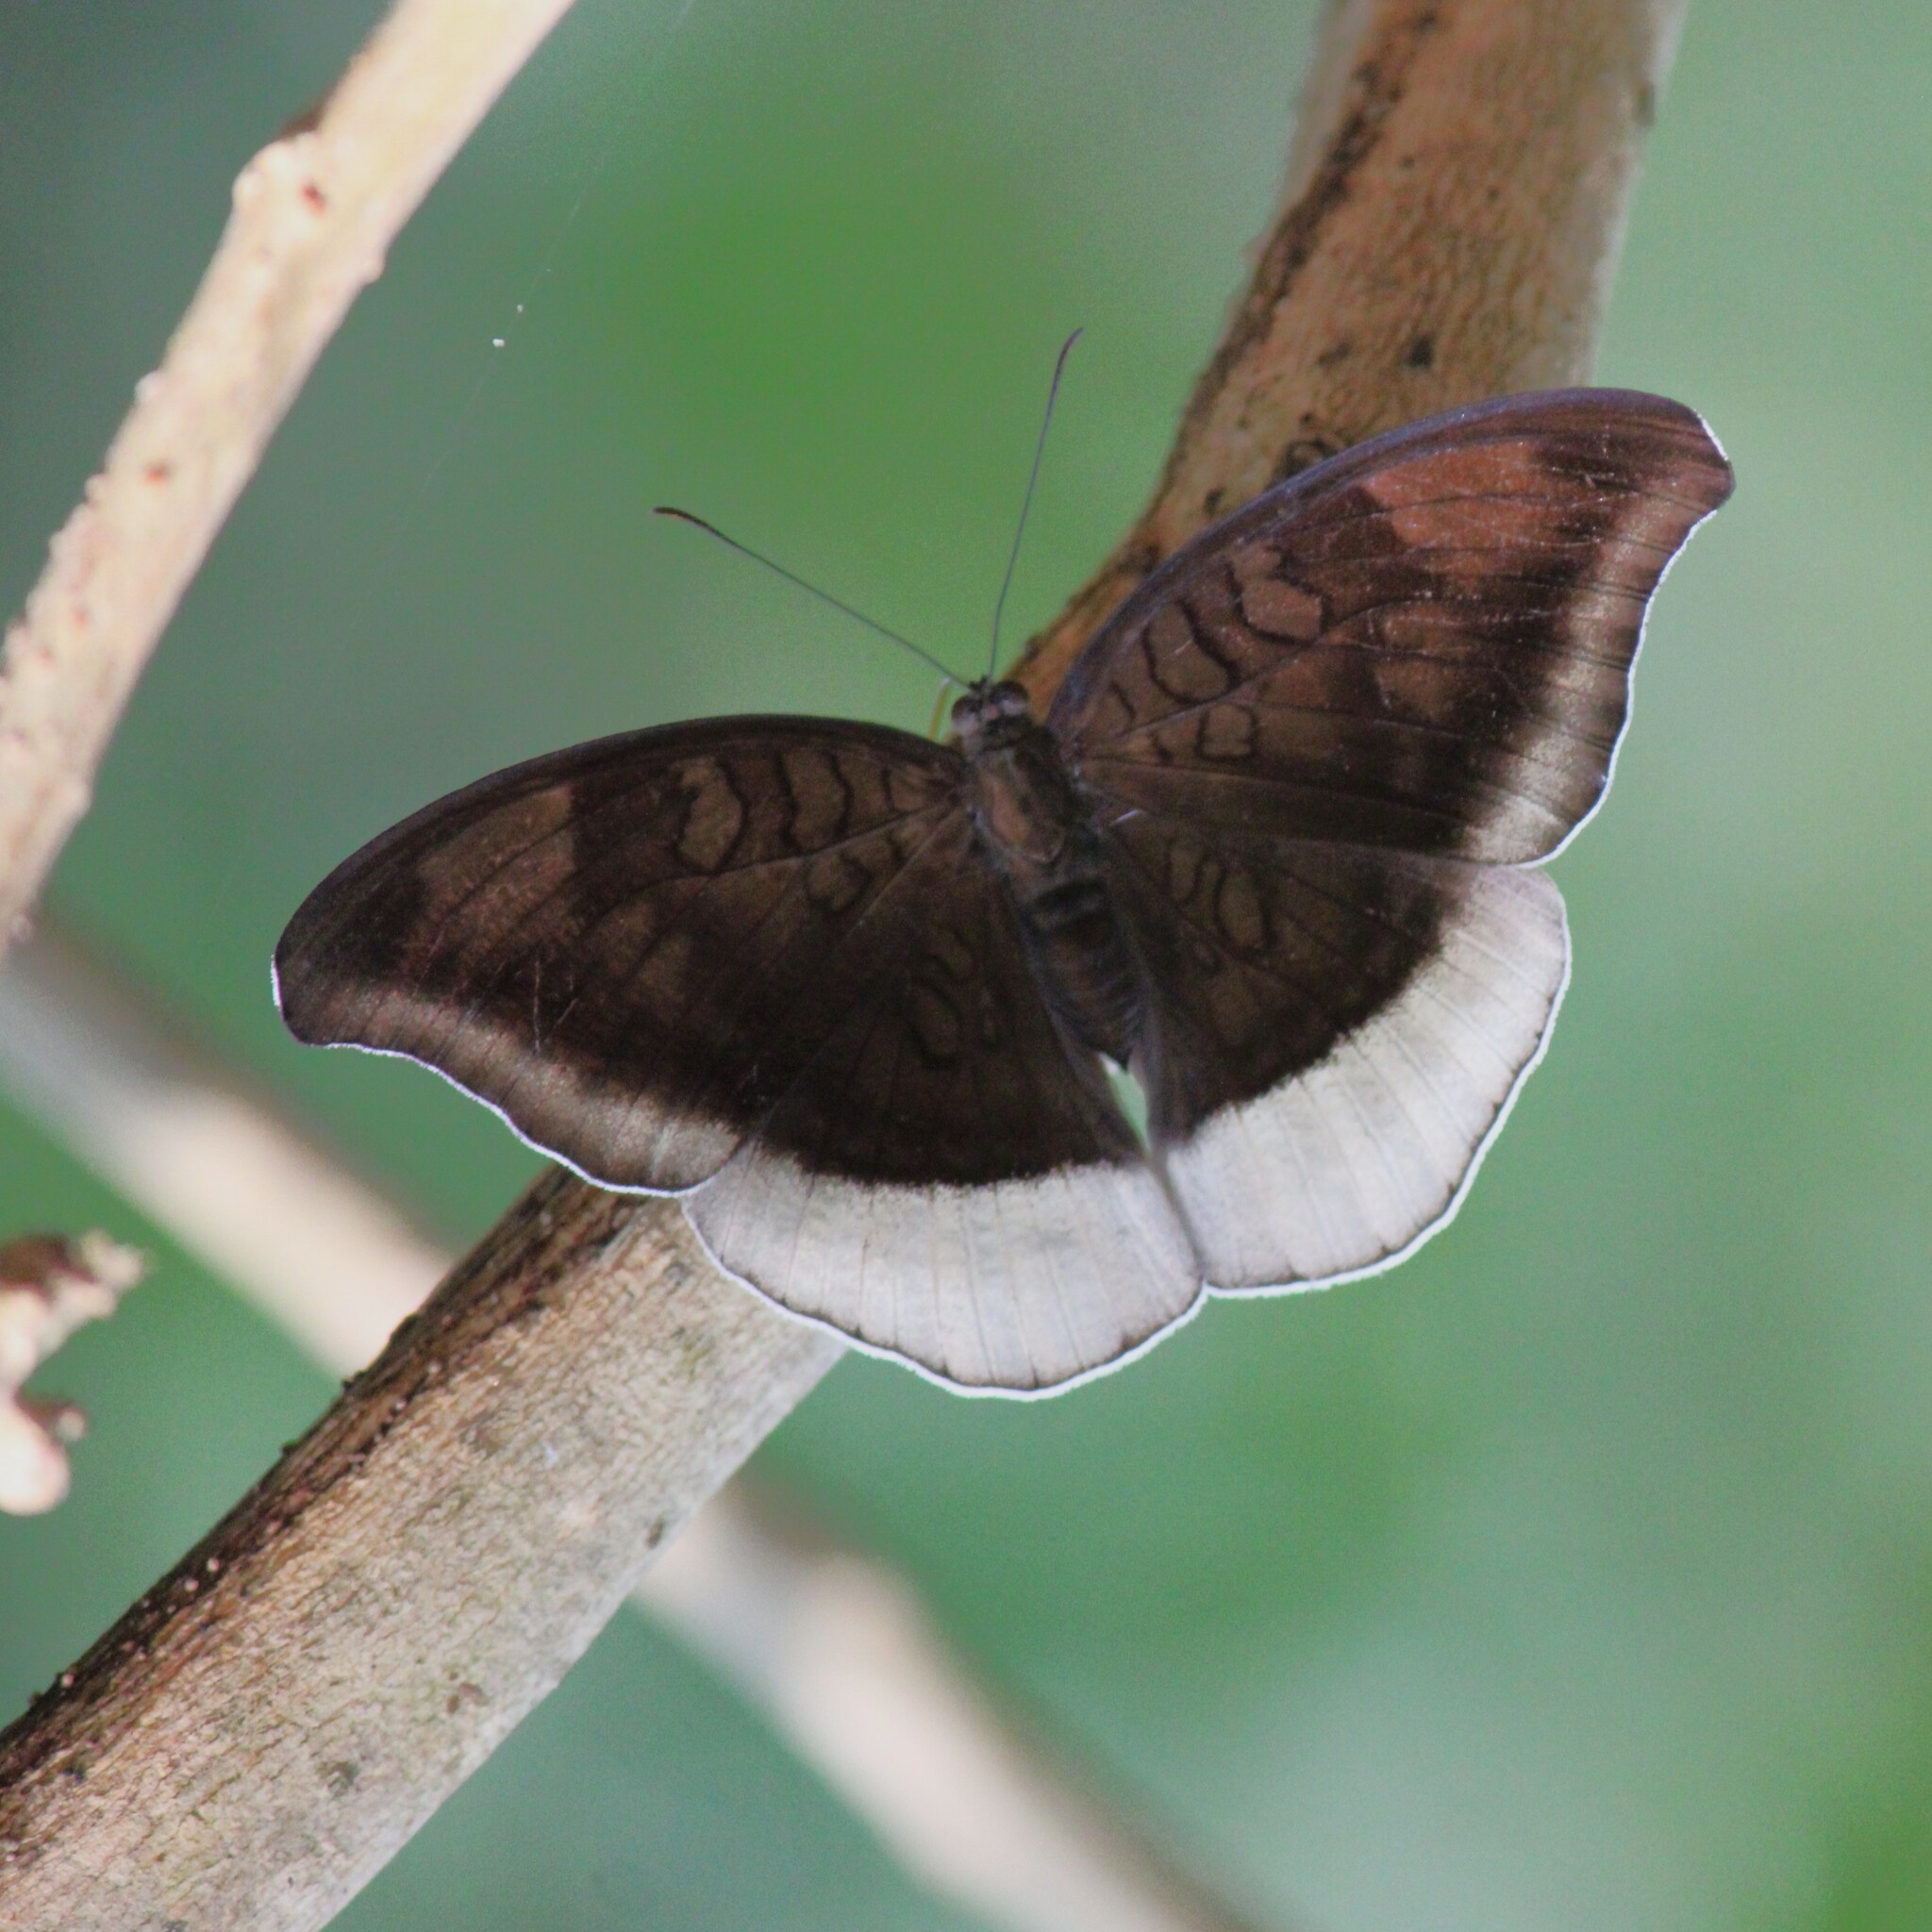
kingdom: Animalia
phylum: Arthropoda
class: Insecta
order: Lepidoptera
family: Nymphalidae
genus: Tanaecia
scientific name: Tanaecia lepidea
